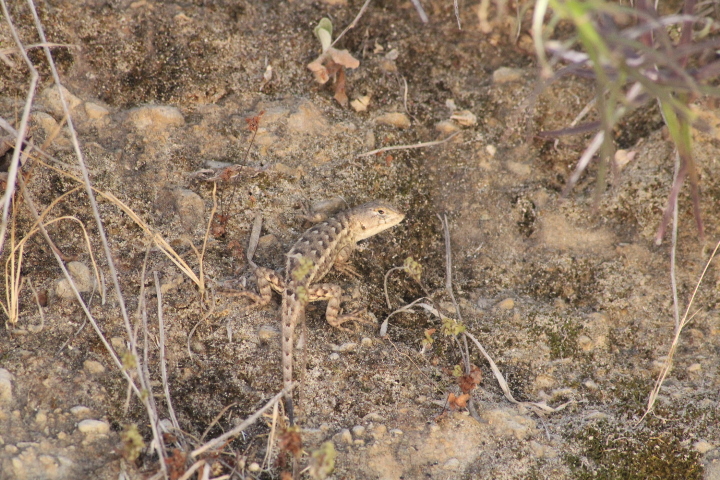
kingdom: Animalia
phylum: Chordata
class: Squamata
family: Phrynosomatidae
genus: Sceloporus
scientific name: Sceloporus albiventris
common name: White-bellied rough lizard
